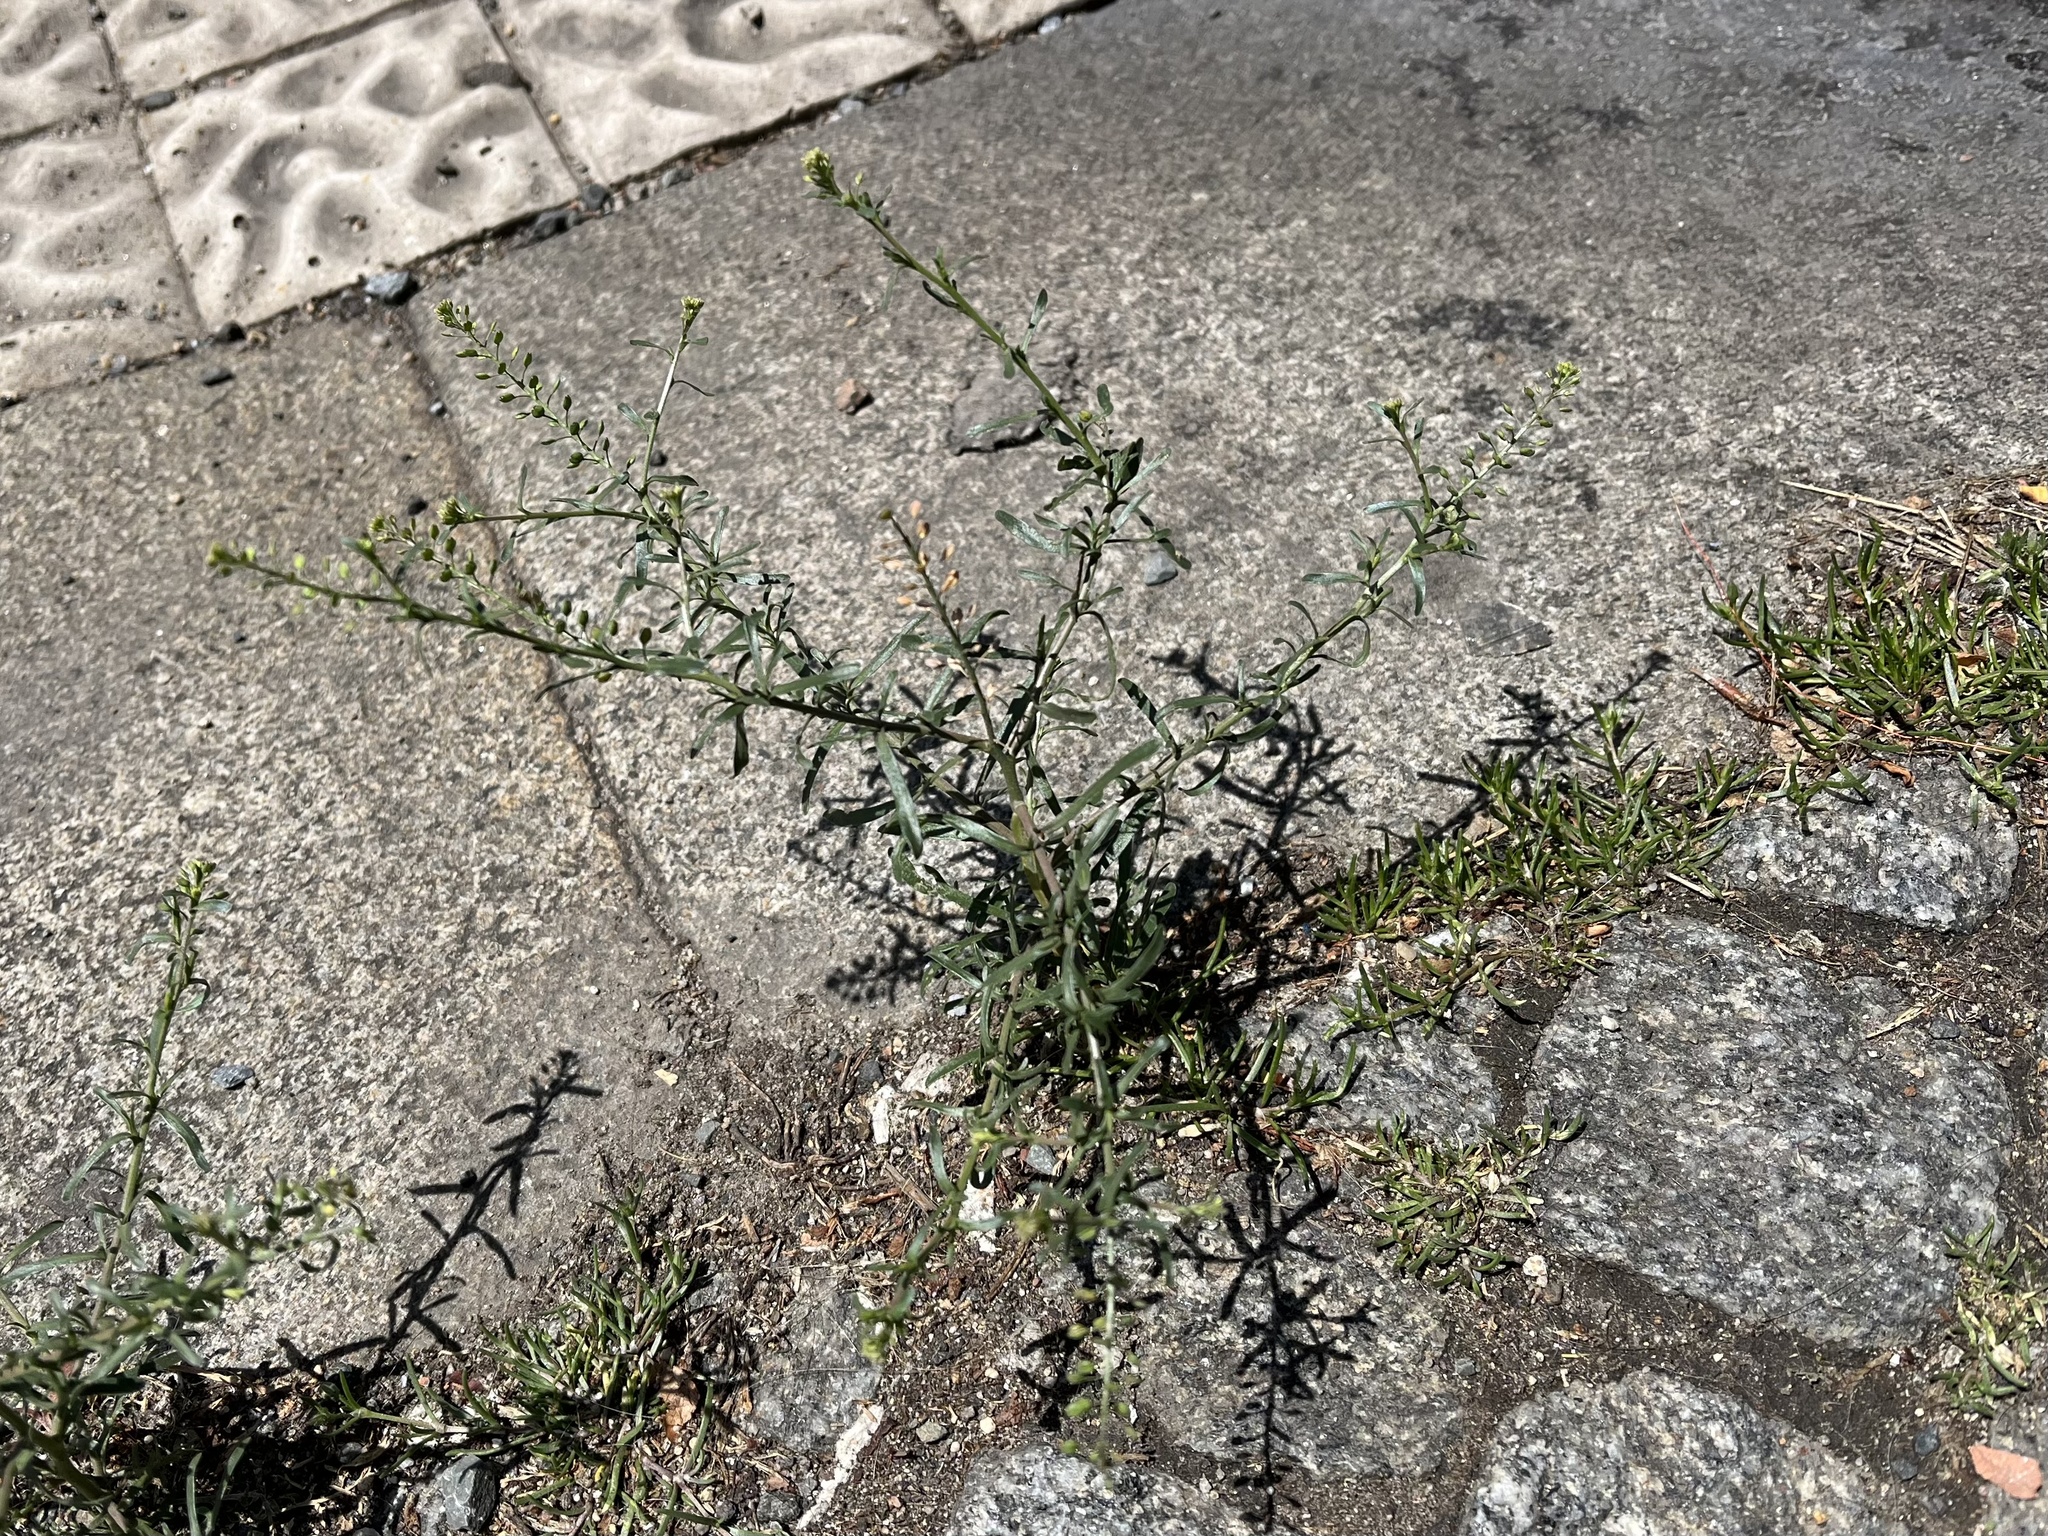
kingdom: Plantae
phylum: Tracheophyta
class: Magnoliopsida
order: Brassicales
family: Brassicaceae
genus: Lepidium
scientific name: Lepidium ruderale
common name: Narrow-leaved pepperwort
